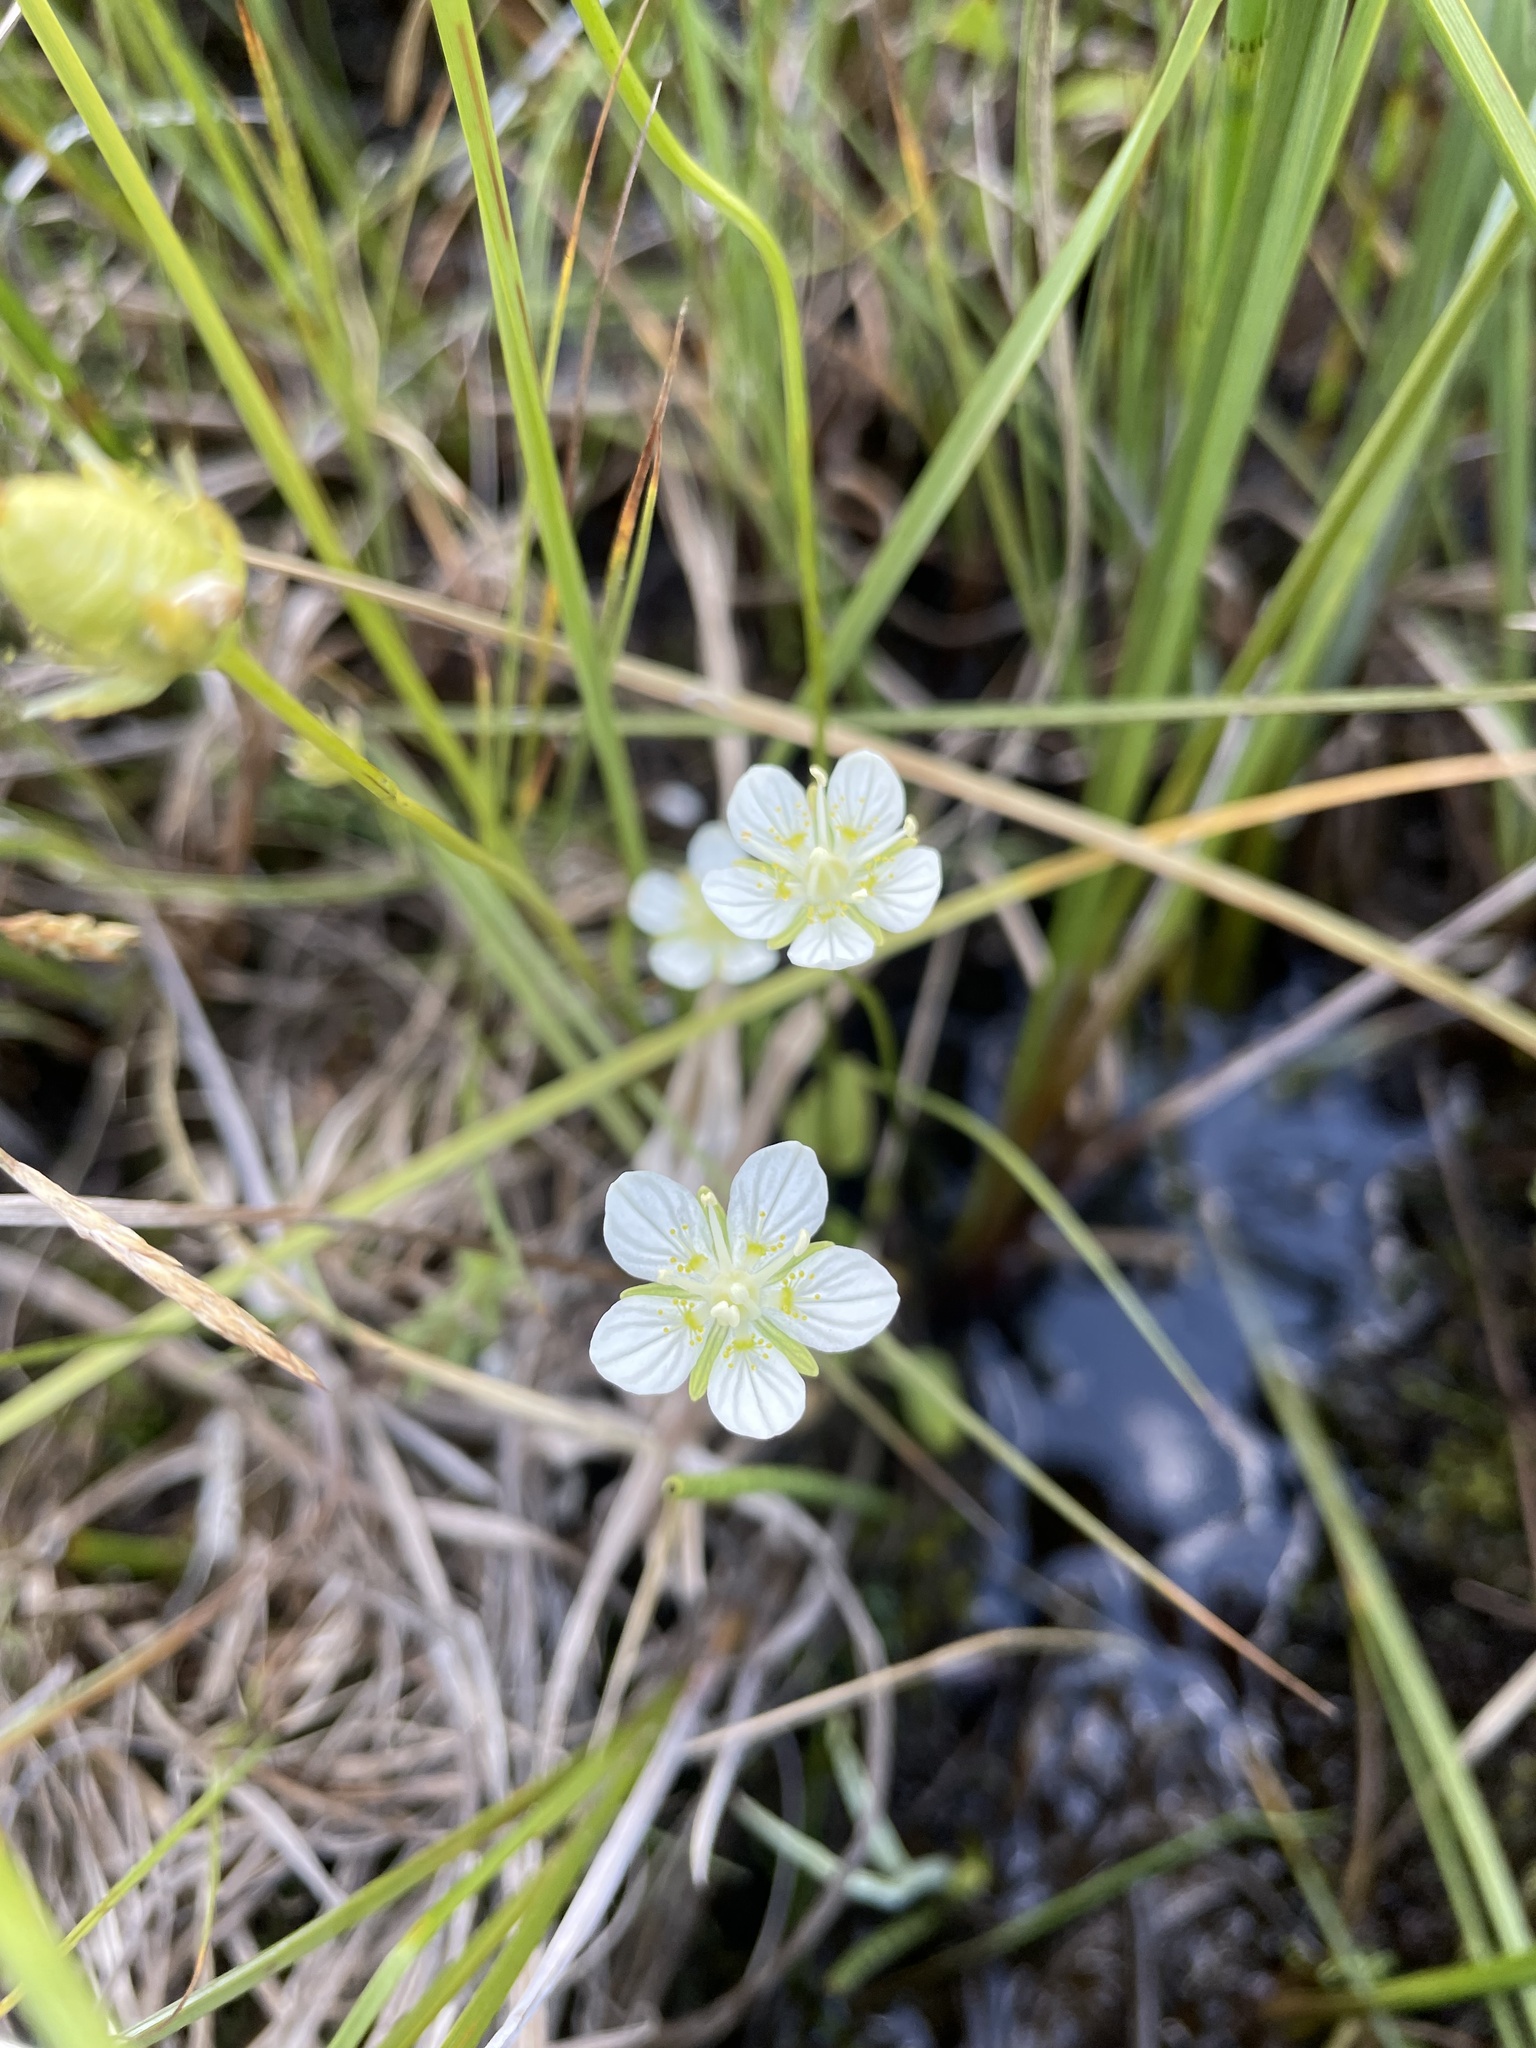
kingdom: Plantae
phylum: Tracheophyta
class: Magnoliopsida
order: Celastrales
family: Parnassiaceae
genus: Parnassia
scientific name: Parnassia palustris
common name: Grass-of-parnassus
